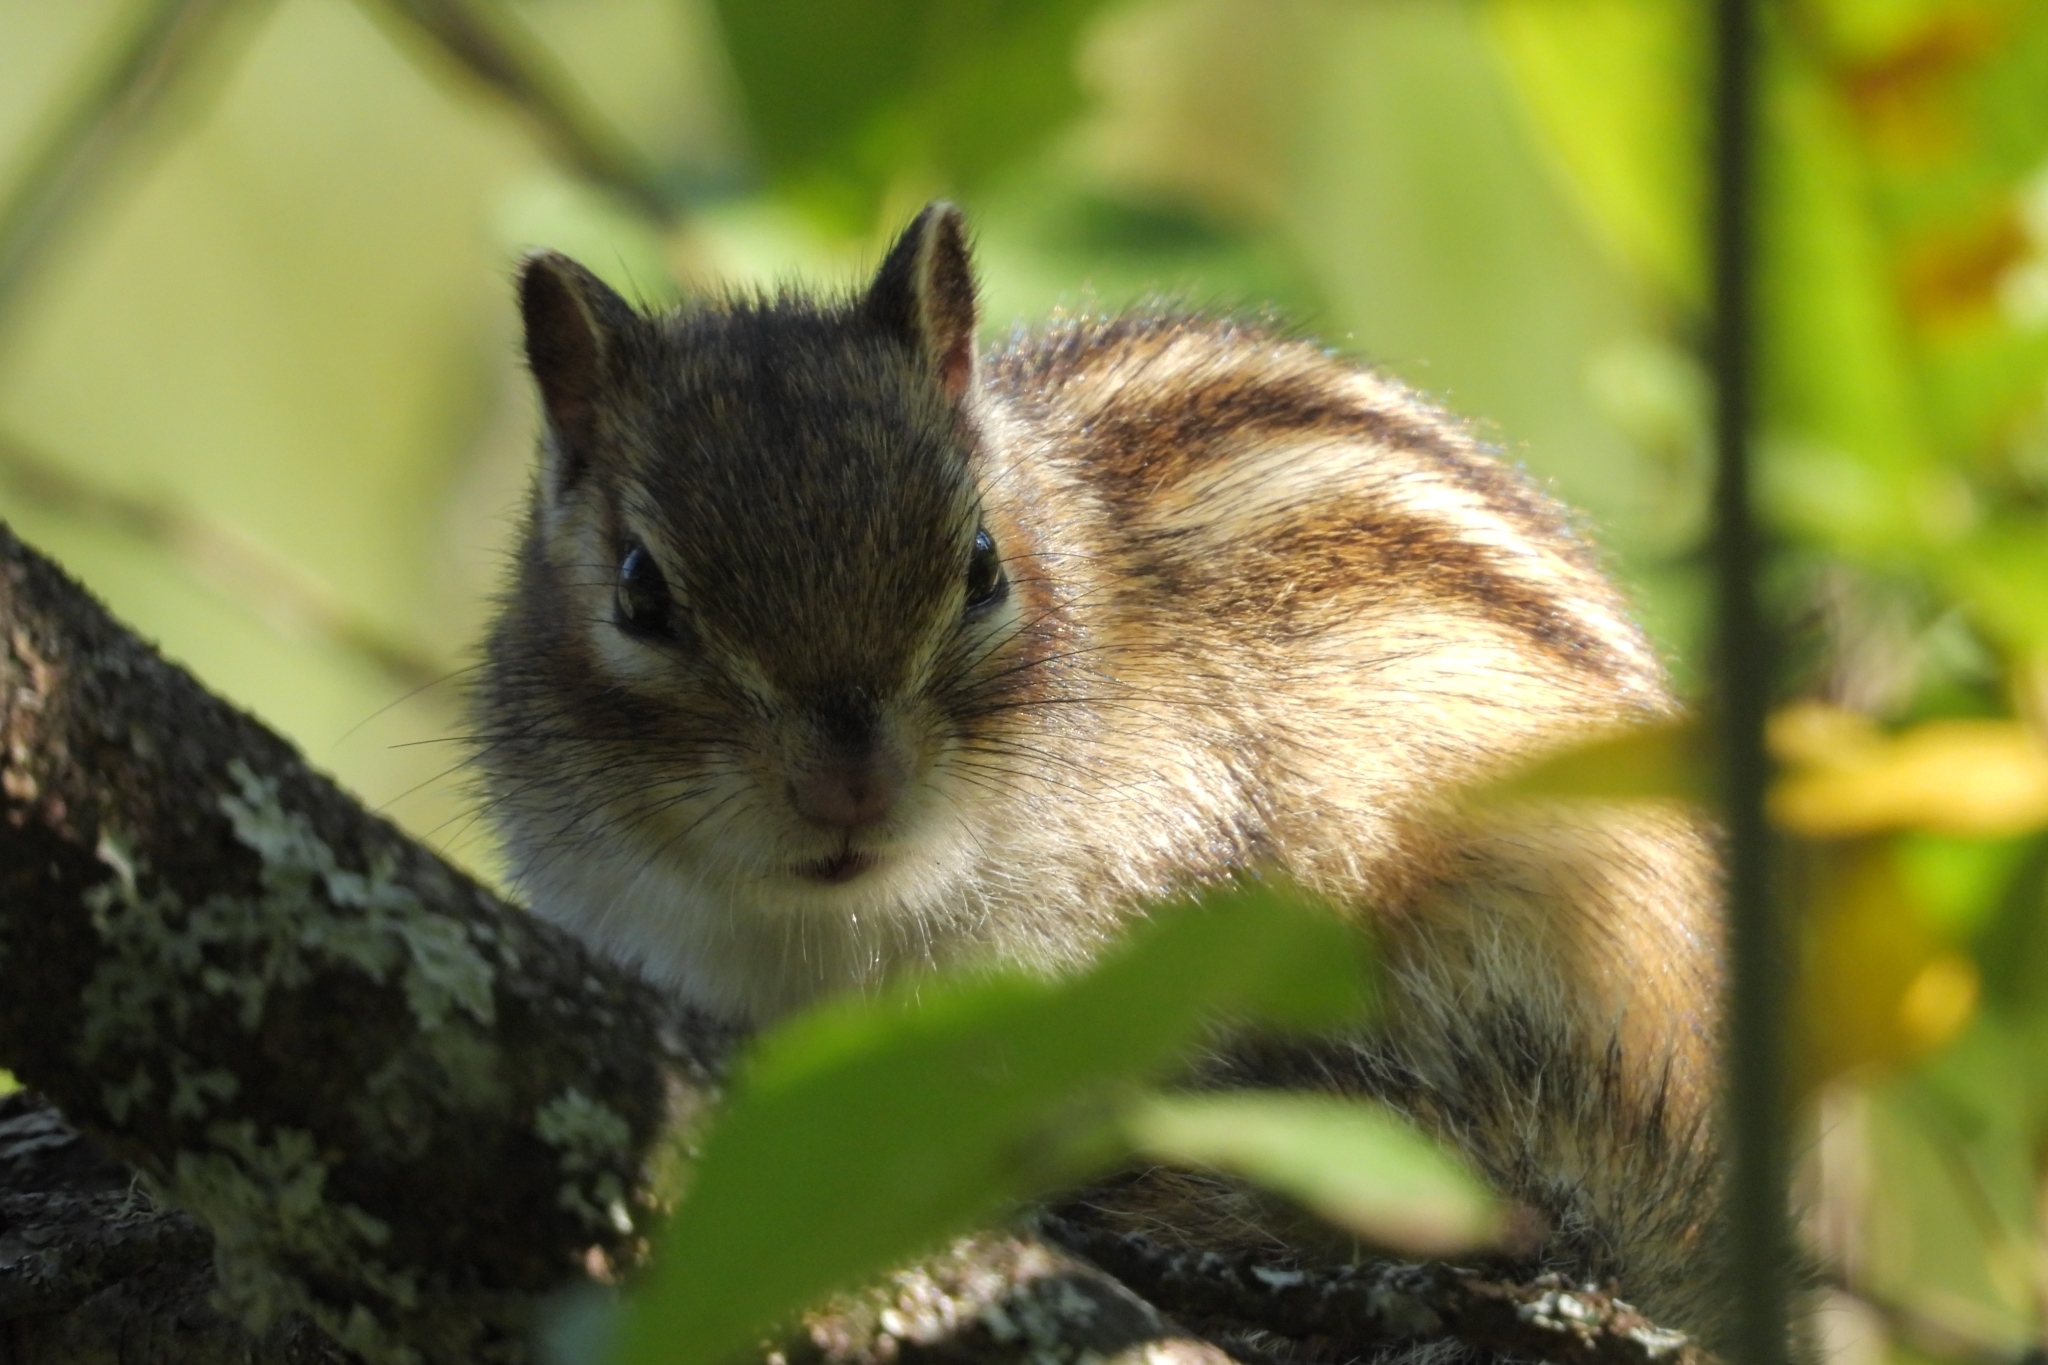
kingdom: Animalia
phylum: Chordata
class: Mammalia
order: Rodentia
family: Sciuridae
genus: Tamias
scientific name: Tamias sibiricus
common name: Siberian chipmunk
